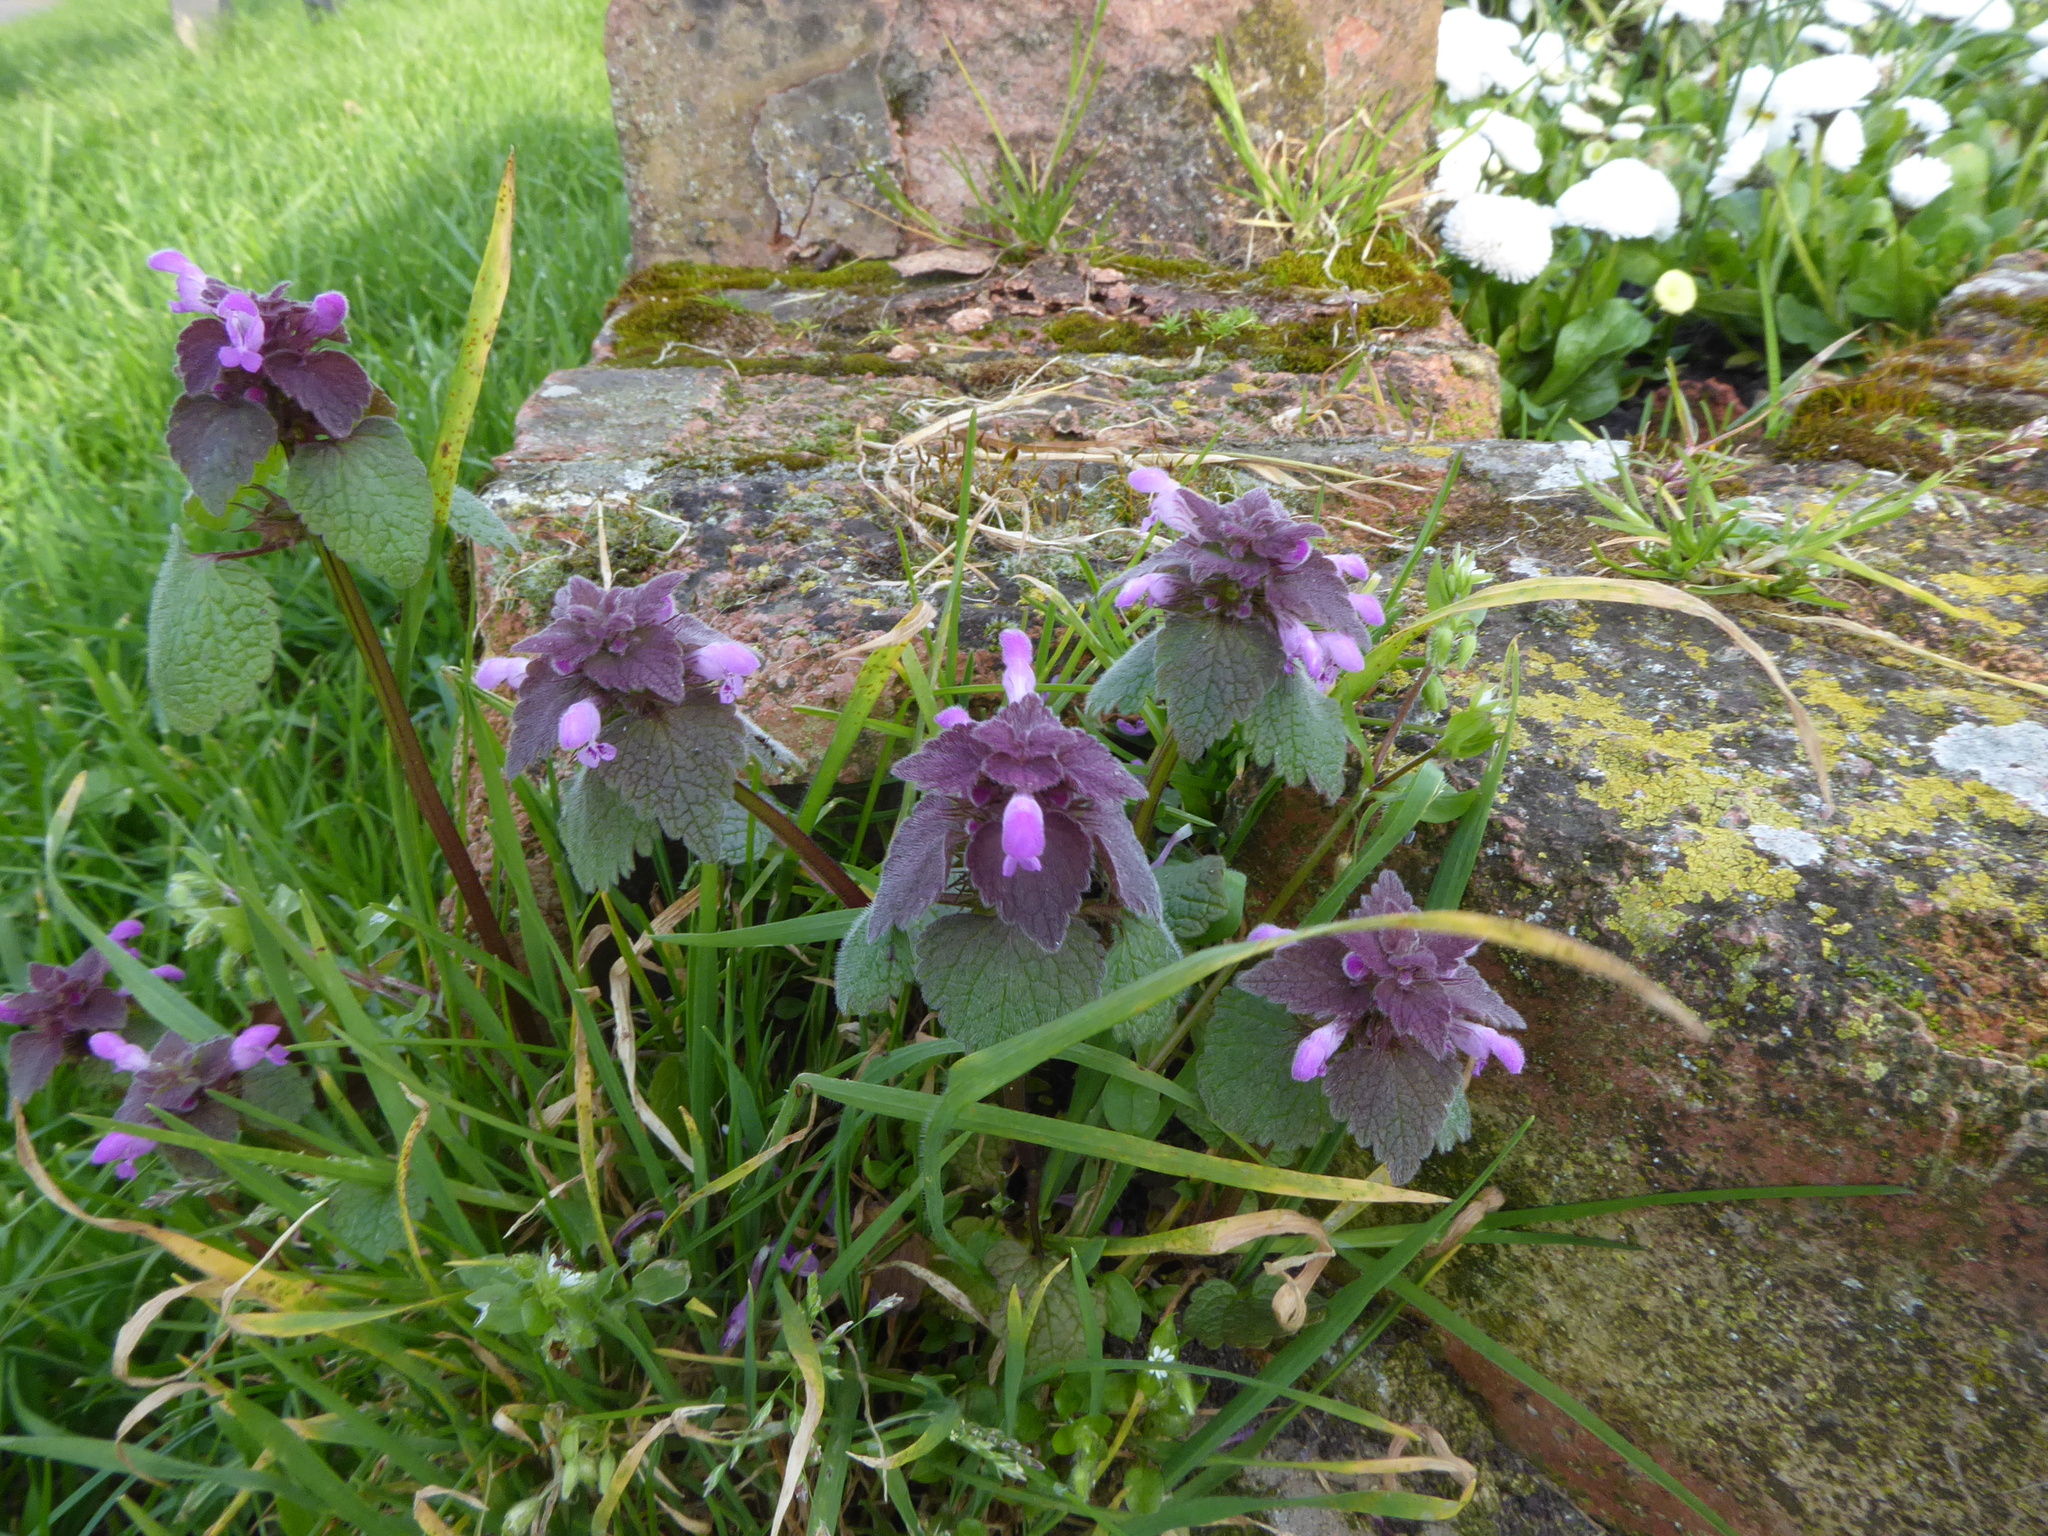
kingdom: Plantae
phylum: Tracheophyta
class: Magnoliopsida
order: Lamiales
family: Lamiaceae
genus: Lamium
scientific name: Lamium purpureum
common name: Red dead-nettle
